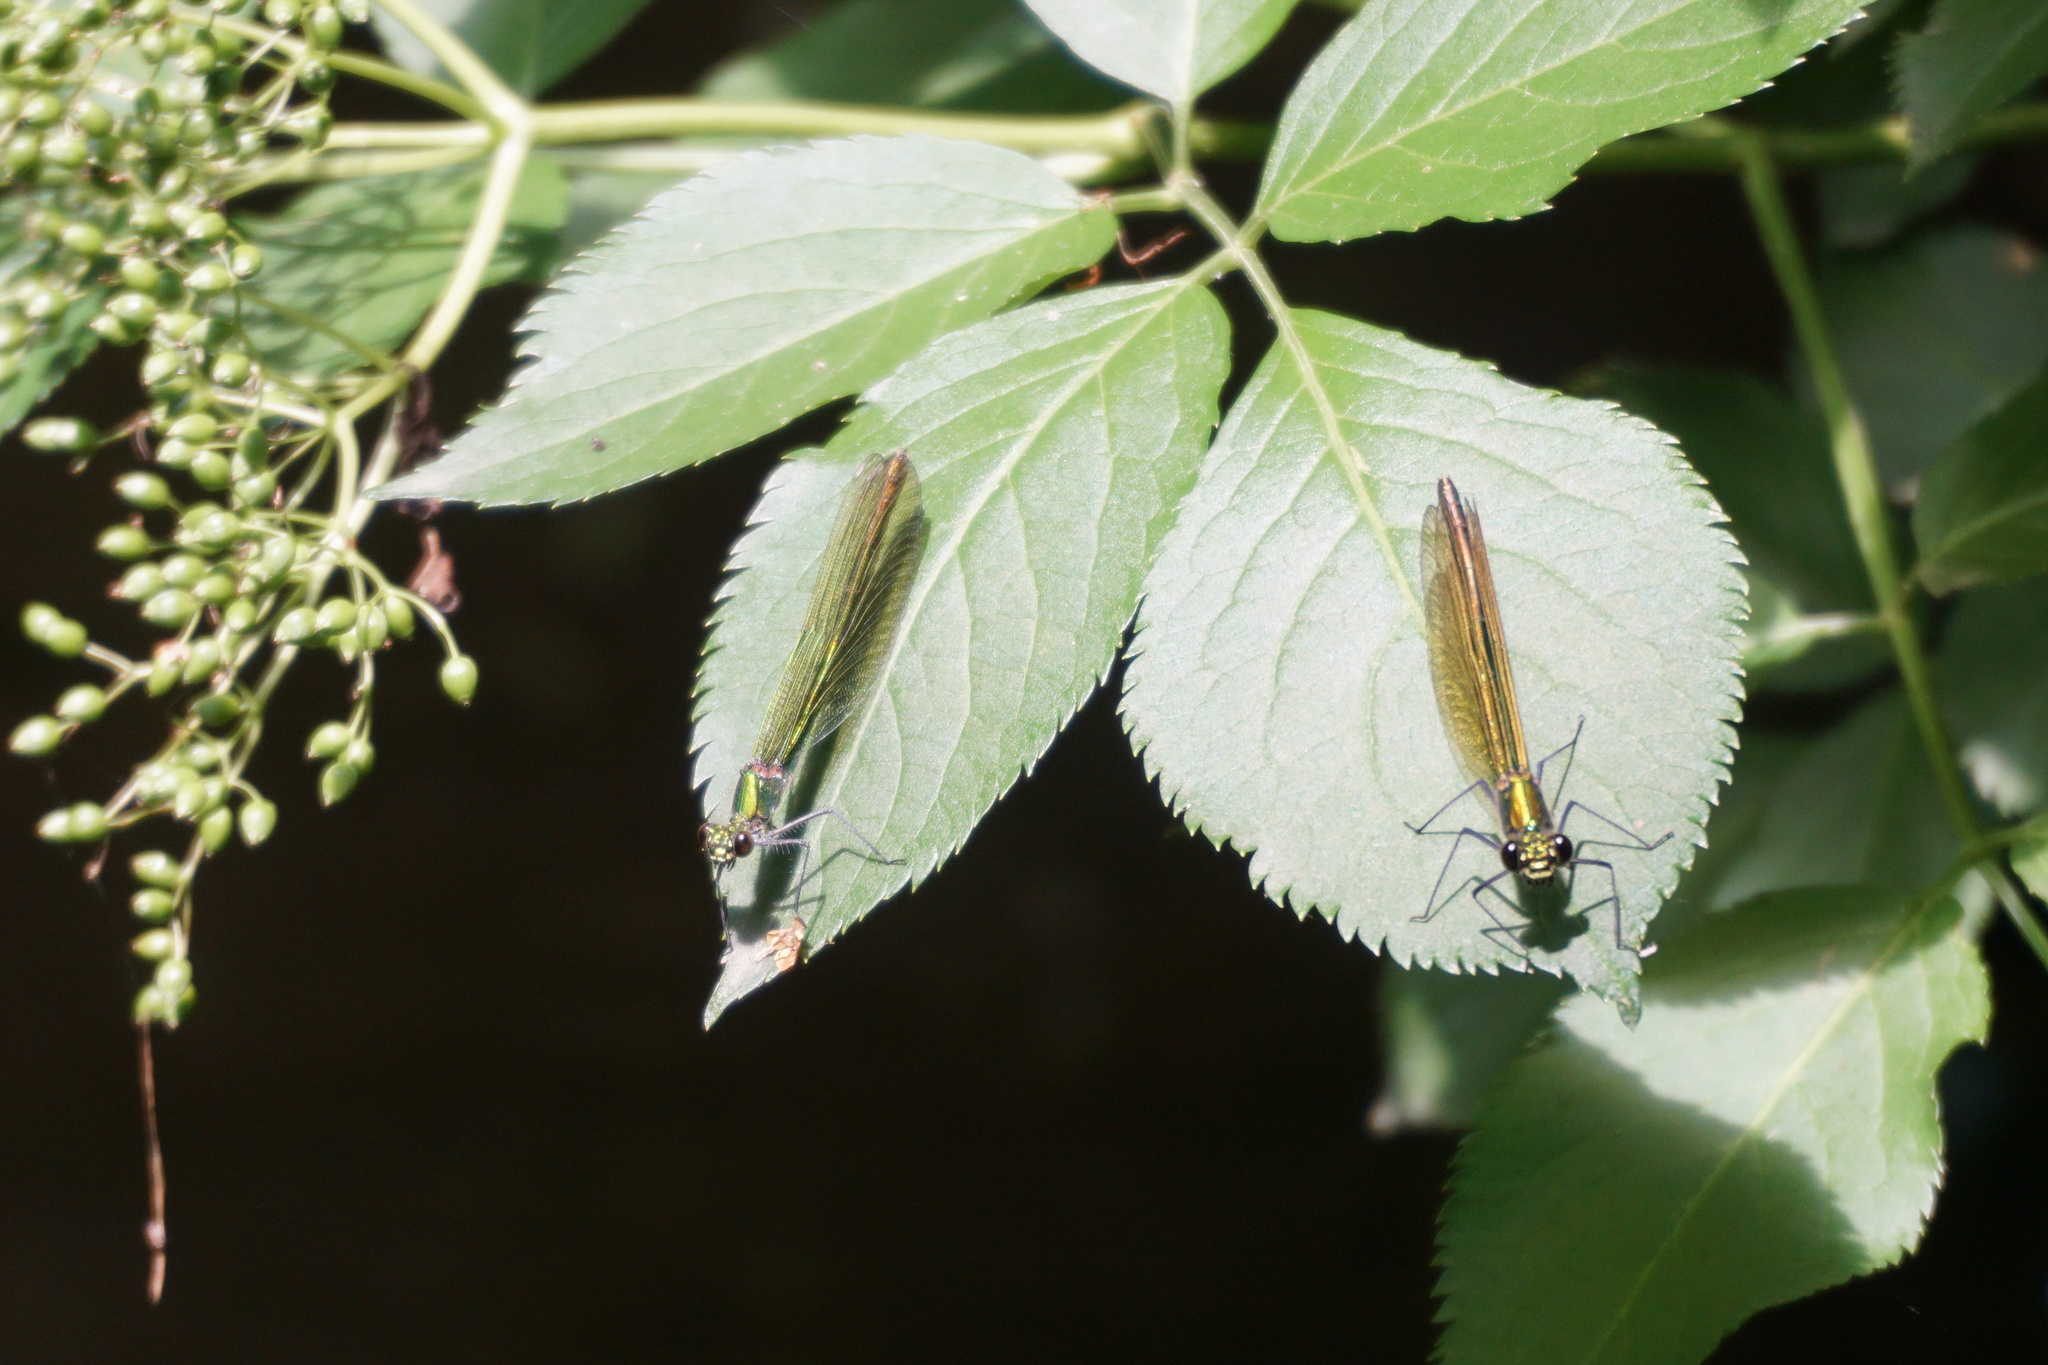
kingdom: Animalia
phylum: Arthropoda
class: Insecta
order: Odonata
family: Calopterygidae
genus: Calopteryx
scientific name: Calopteryx splendens
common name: Banded demoiselle
